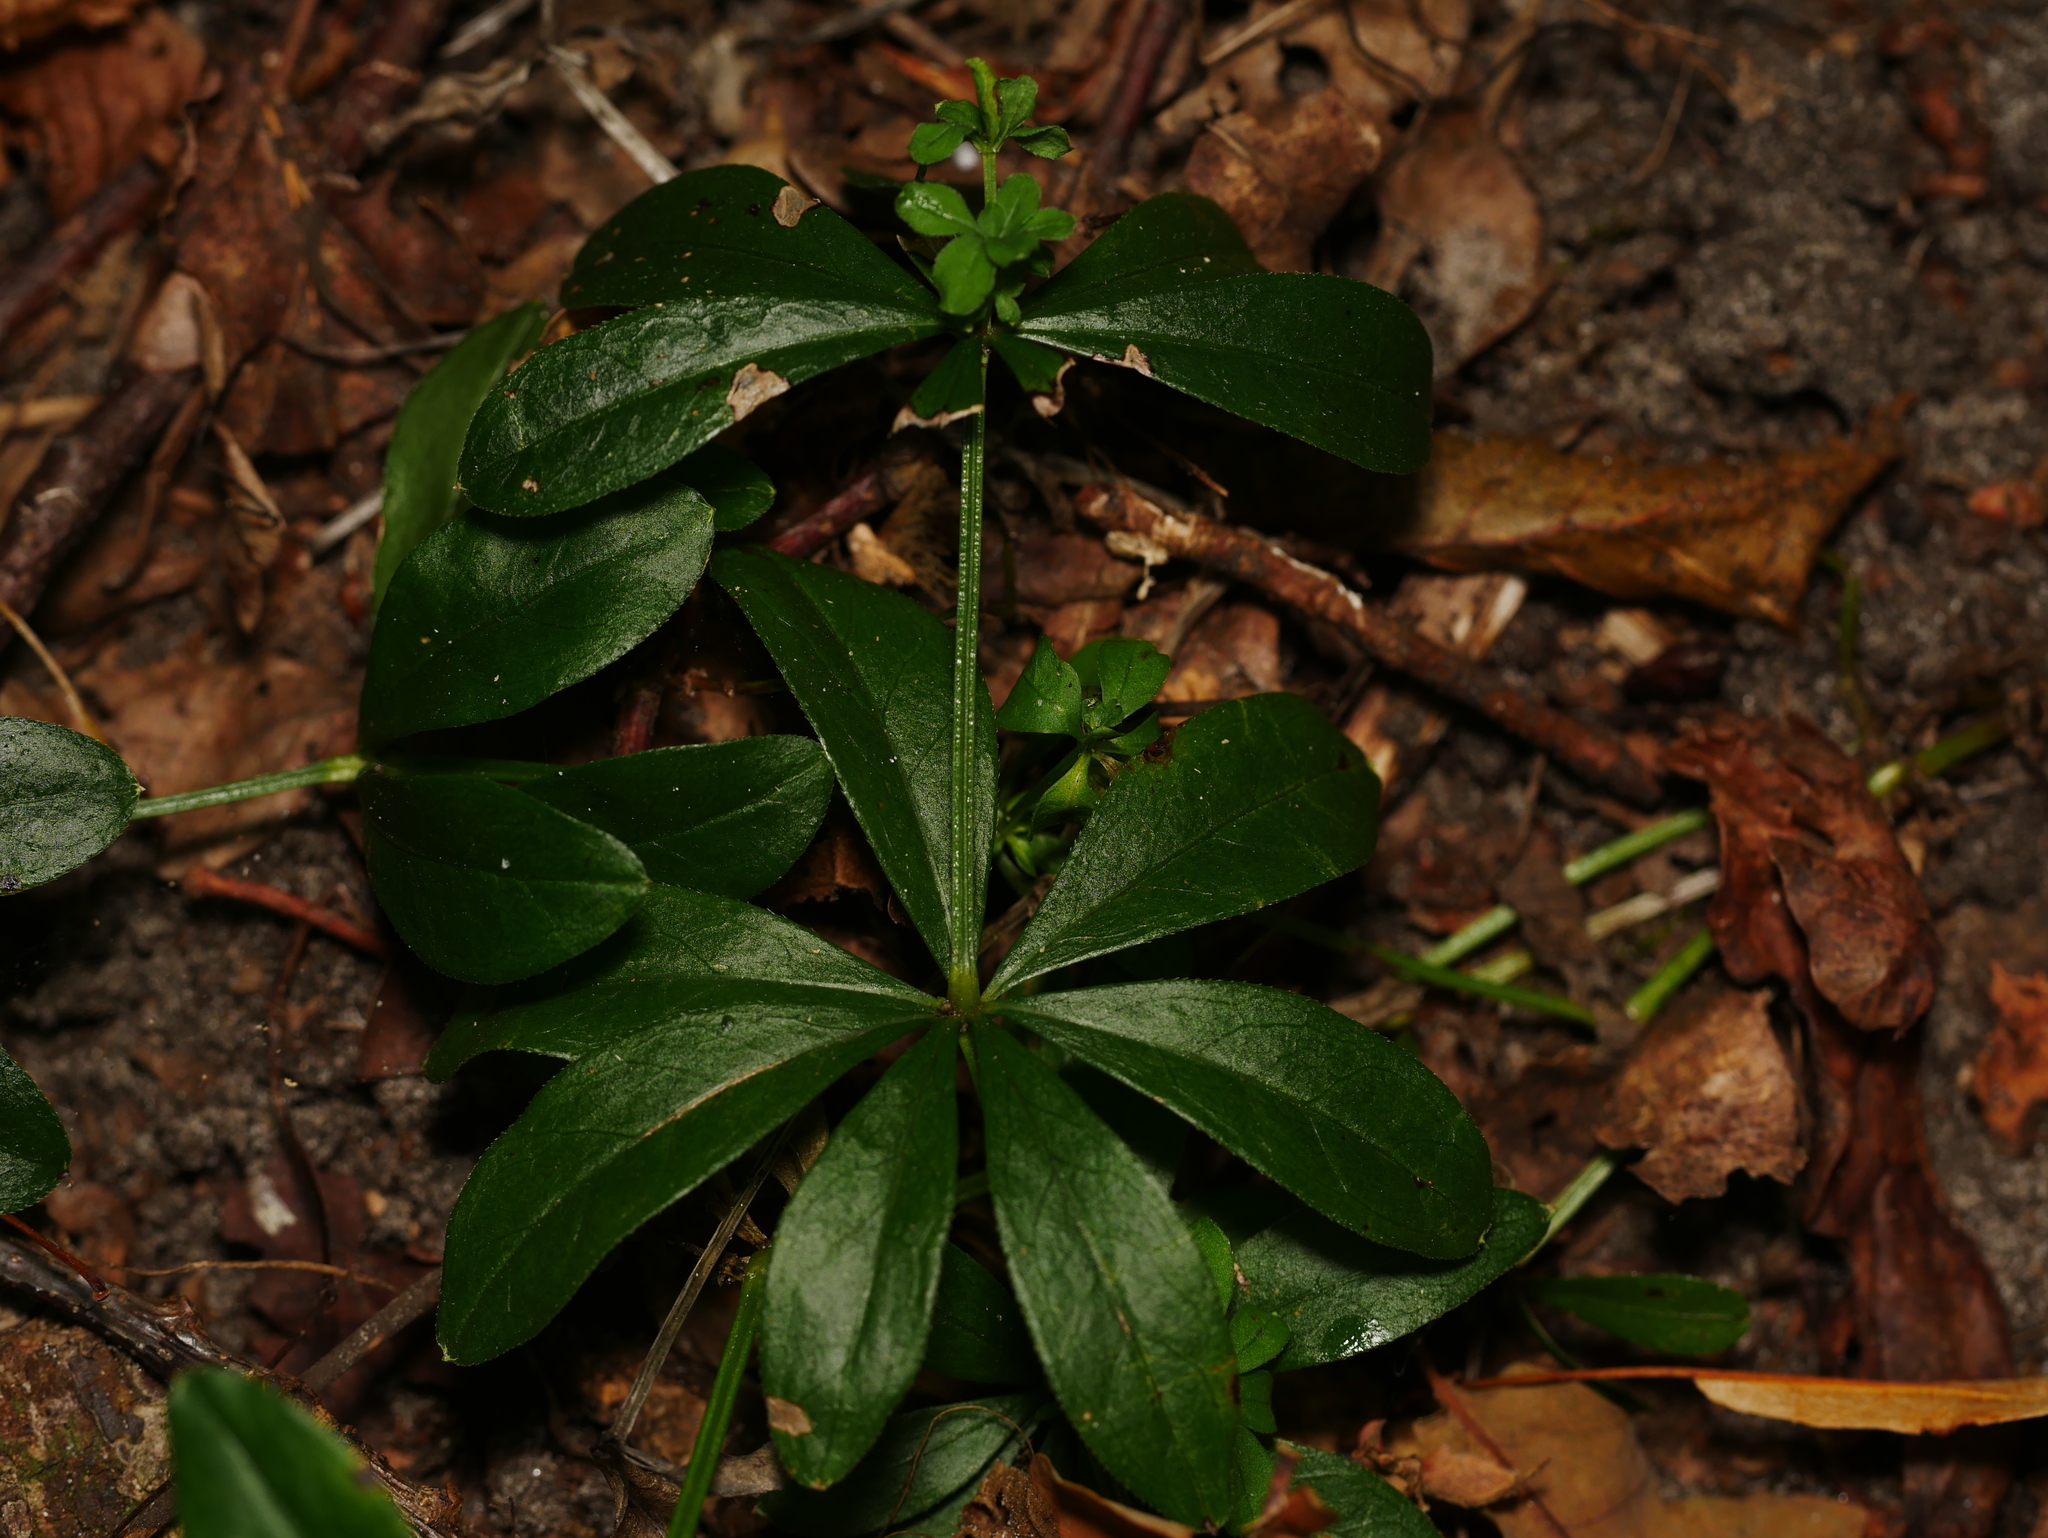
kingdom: Plantae
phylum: Tracheophyta
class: Magnoliopsida
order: Gentianales
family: Rubiaceae
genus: Galium
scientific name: Galium odoratum
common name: Sweet woodruff
